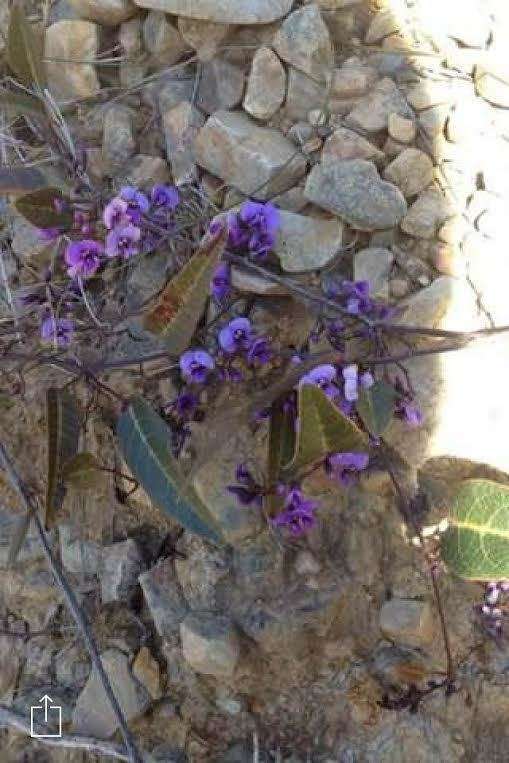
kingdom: Plantae
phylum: Tracheophyta
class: Magnoliopsida
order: Fabales
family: Fabaceae
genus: Hardenbergia
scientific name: Hardenbergia violacea
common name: Coral-pea
